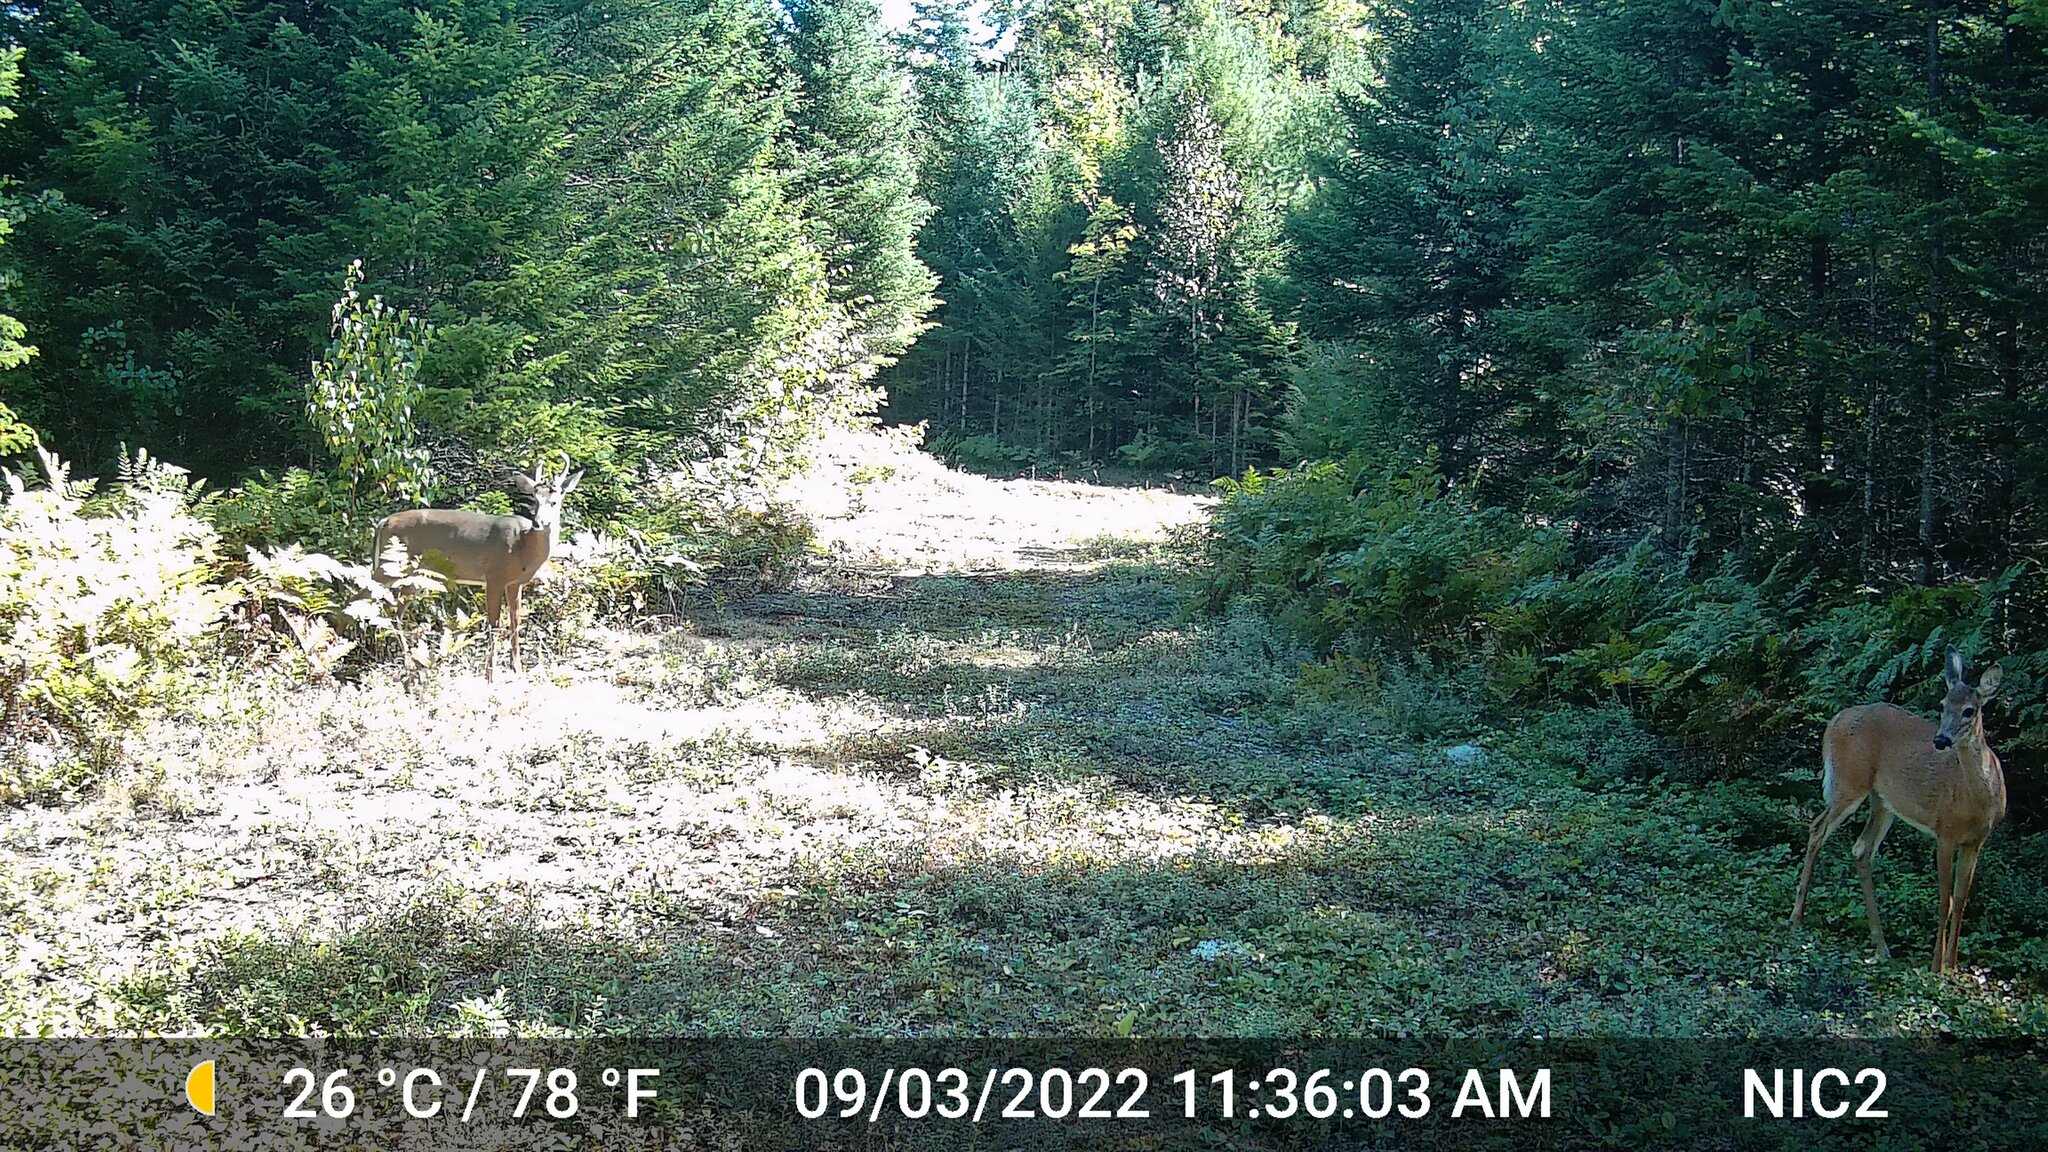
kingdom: Animalia
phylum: Chordata
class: Mammalia
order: Artiodactyla
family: Cervidae
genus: Odocoileus
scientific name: Odocoileus virginianus
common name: White-tailed deer
